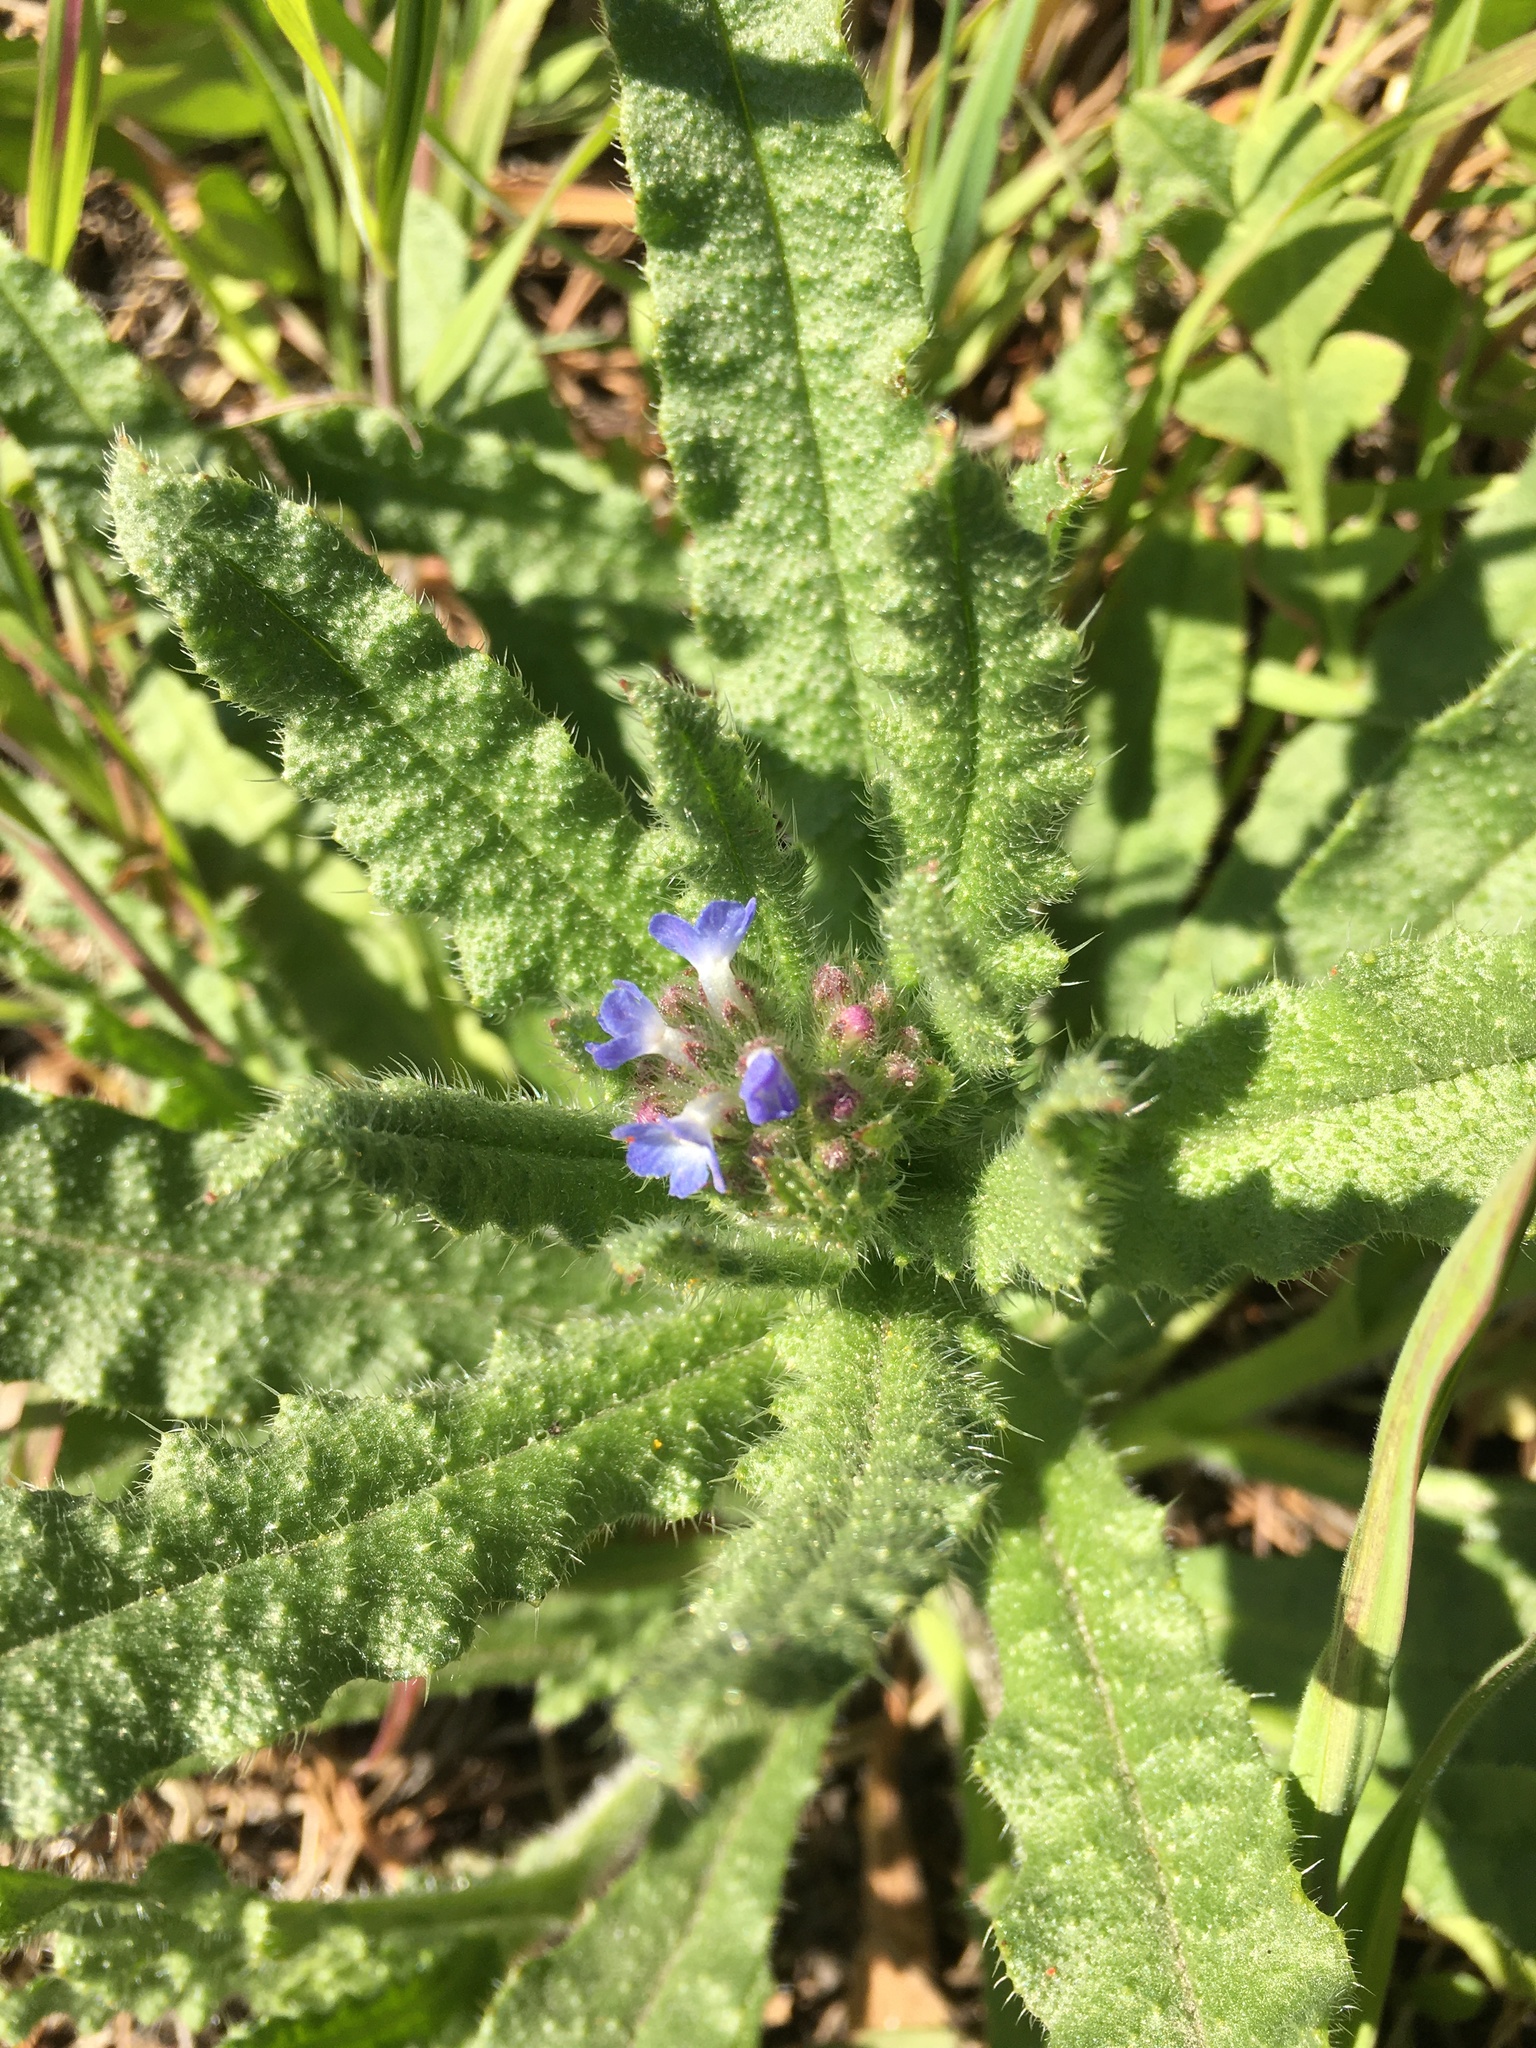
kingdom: Plantae
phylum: Tracheophyta
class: Magnoliopsida
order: Boraginales
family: Boraginaceae
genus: Lycopsis
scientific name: Lycopsis arvensis
